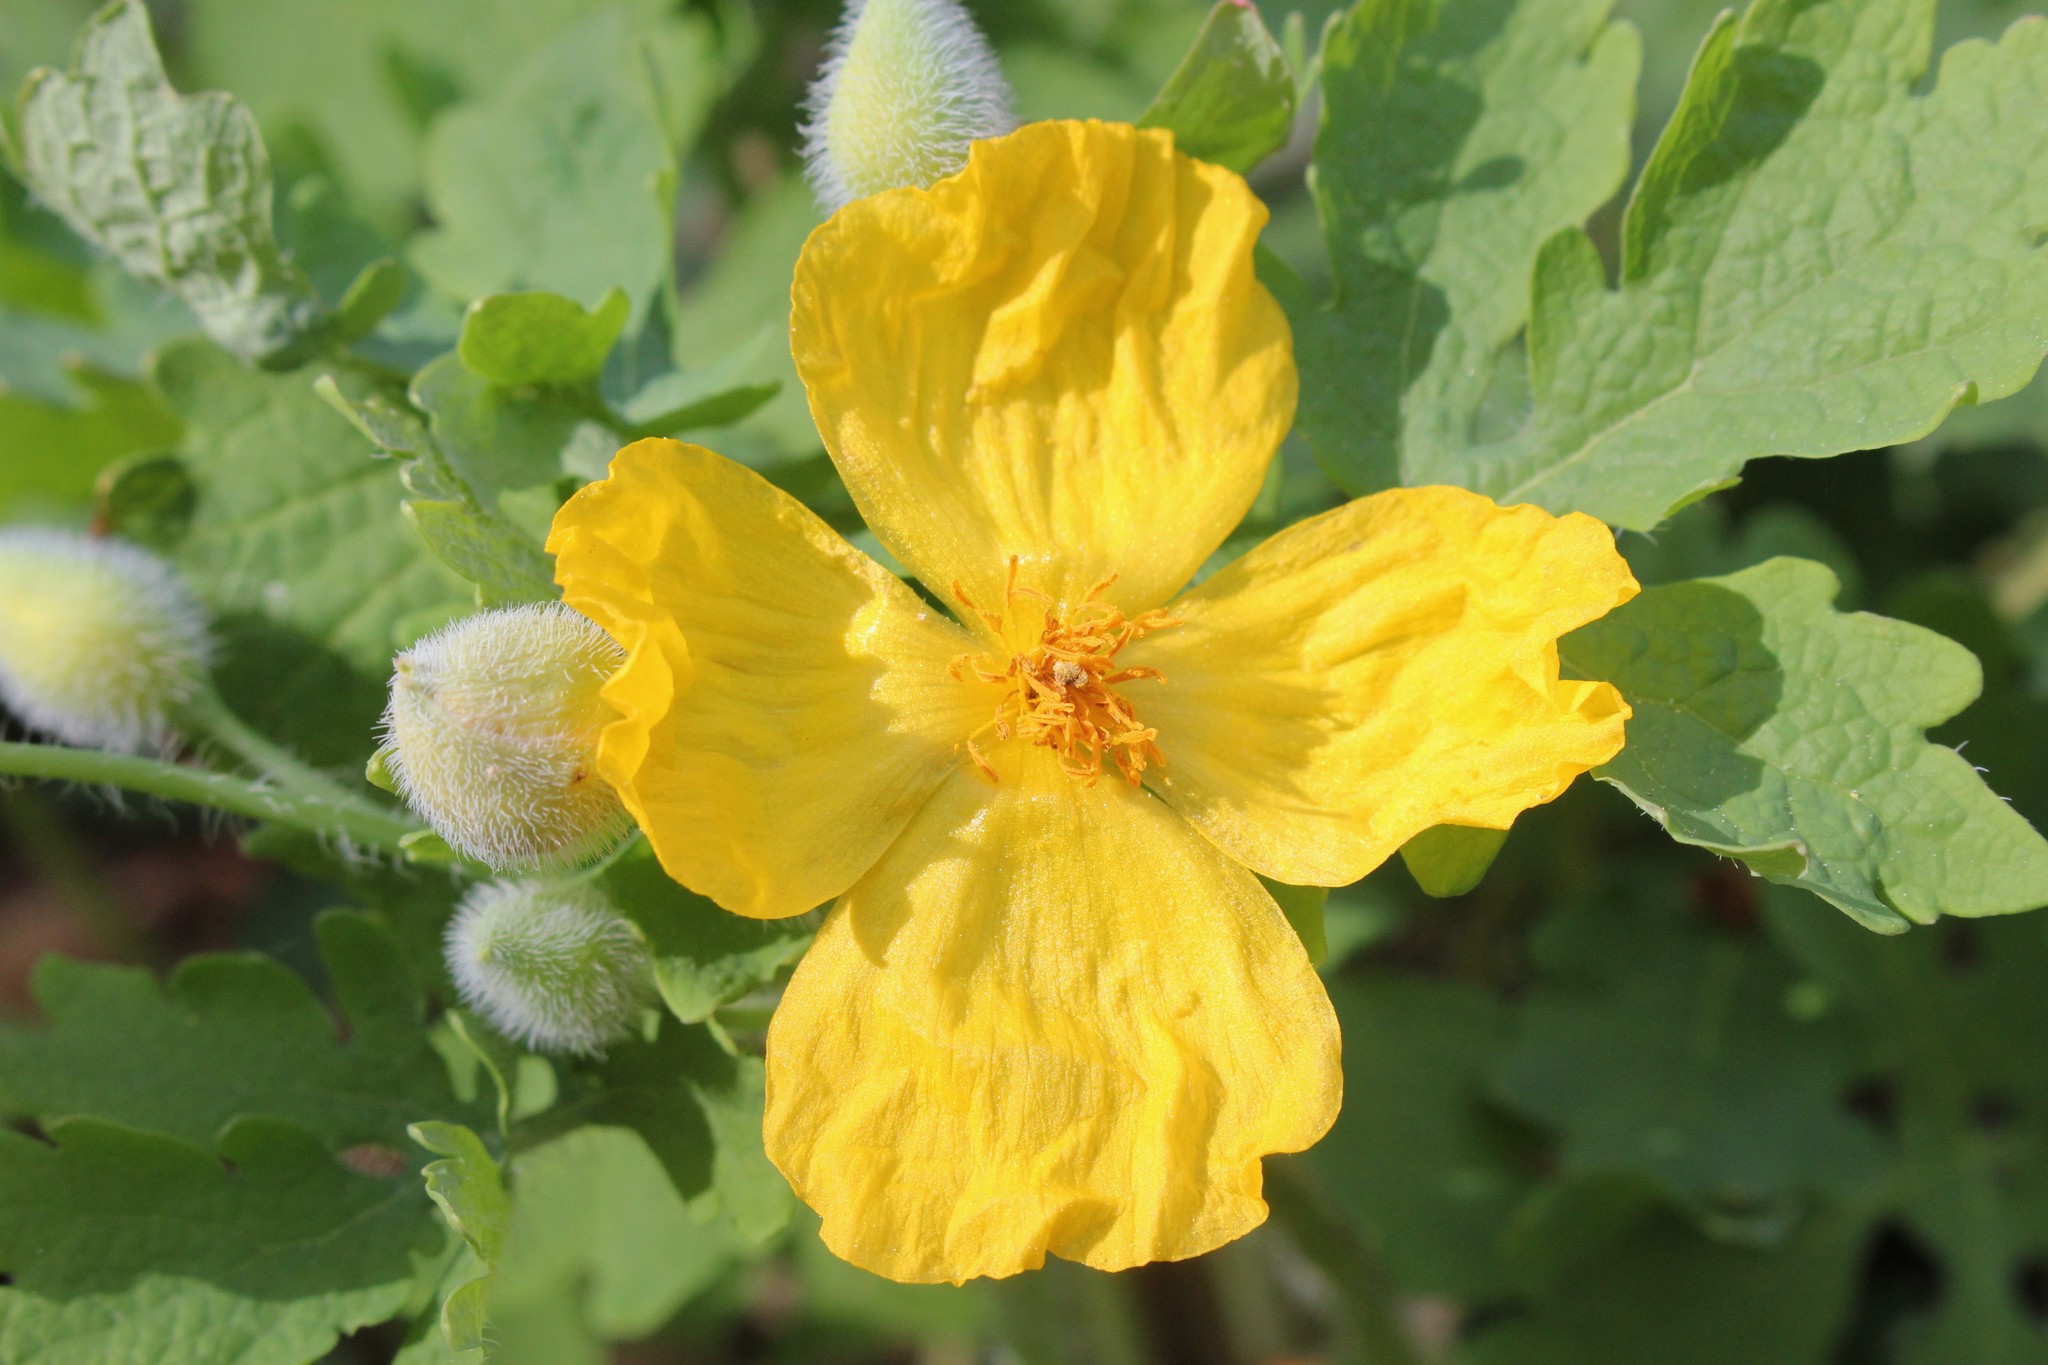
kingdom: Plantae
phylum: Tracheophyta
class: Magnoliopsida
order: Ranunculales
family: Papaveraceae
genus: Stylophorum
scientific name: Stylophorum diphyllum
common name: Celandine poppy
